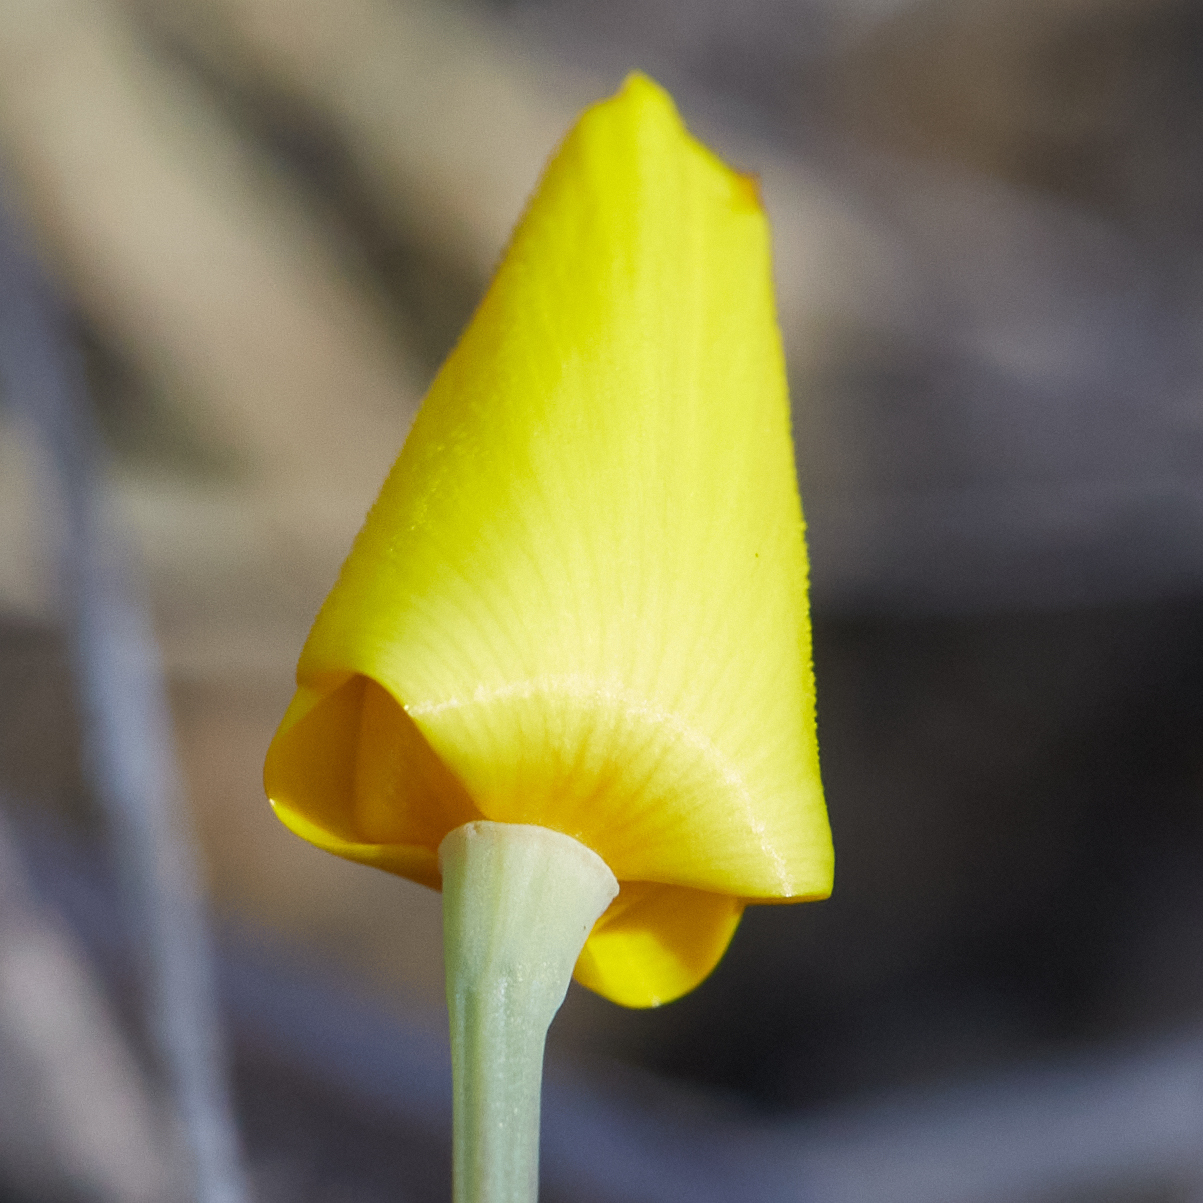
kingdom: Plantae
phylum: Tracheophyta
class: Magnoliopsida
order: Ranunculales
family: Papaveraceae
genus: Eschscholzia
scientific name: Eschscholzia caespitosa
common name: Tufted california-poppy
